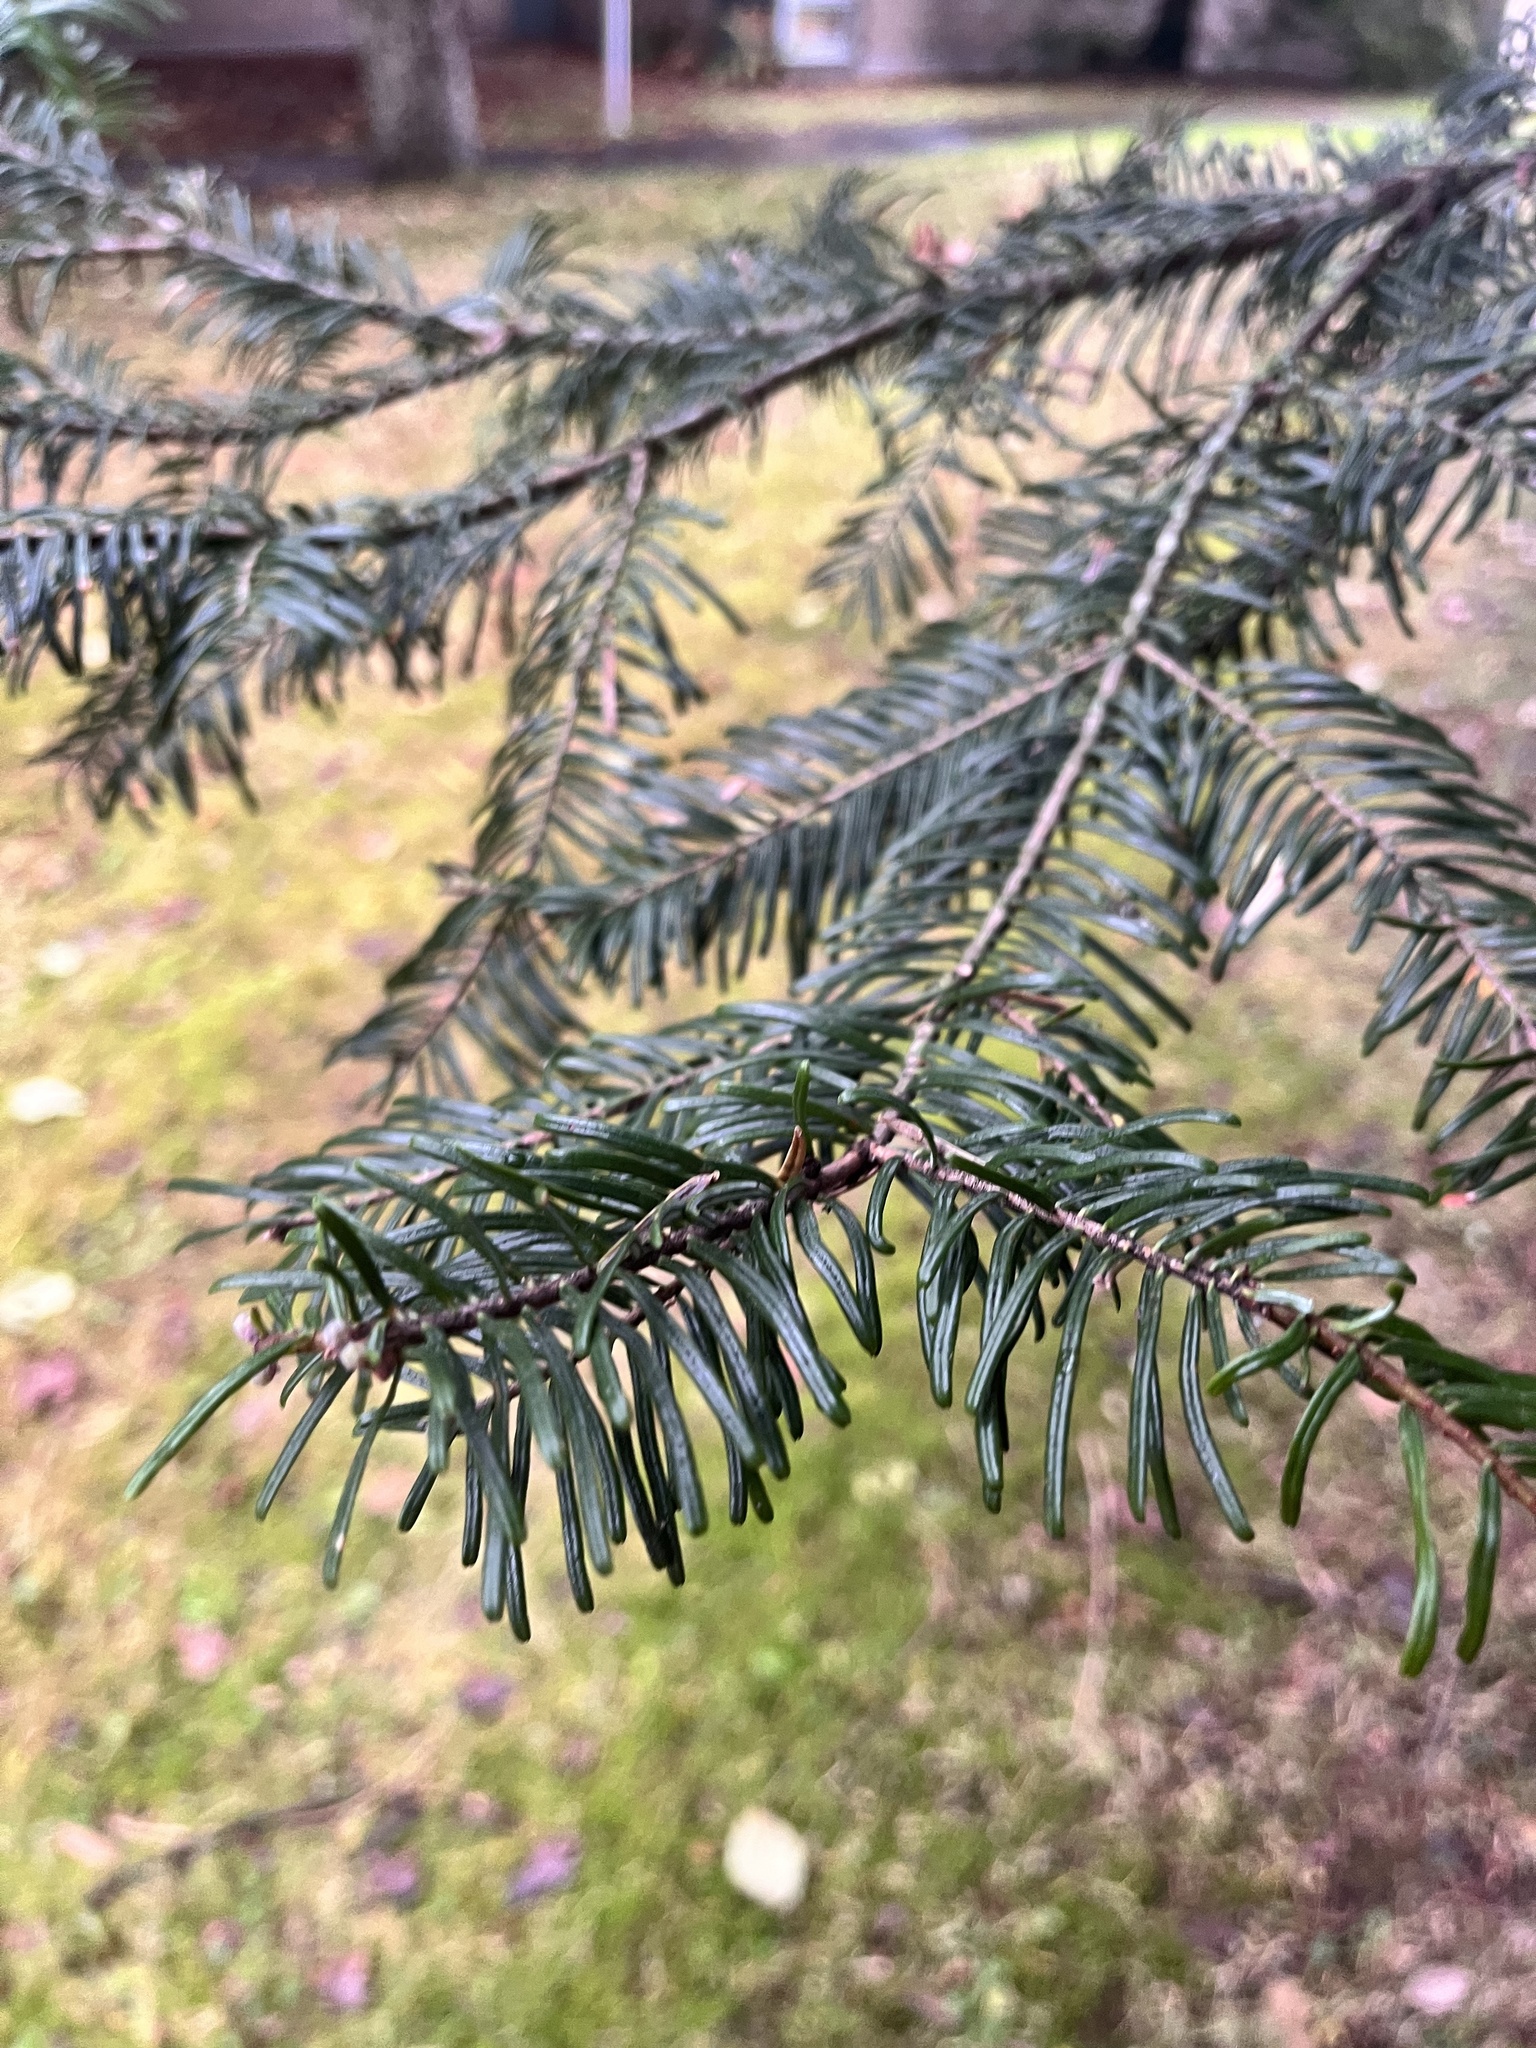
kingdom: Plantae
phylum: Tracheophyta
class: Pinopsida
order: Pinales
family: Pinaceae
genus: Abies
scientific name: Abies grandis
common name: Giant fir
